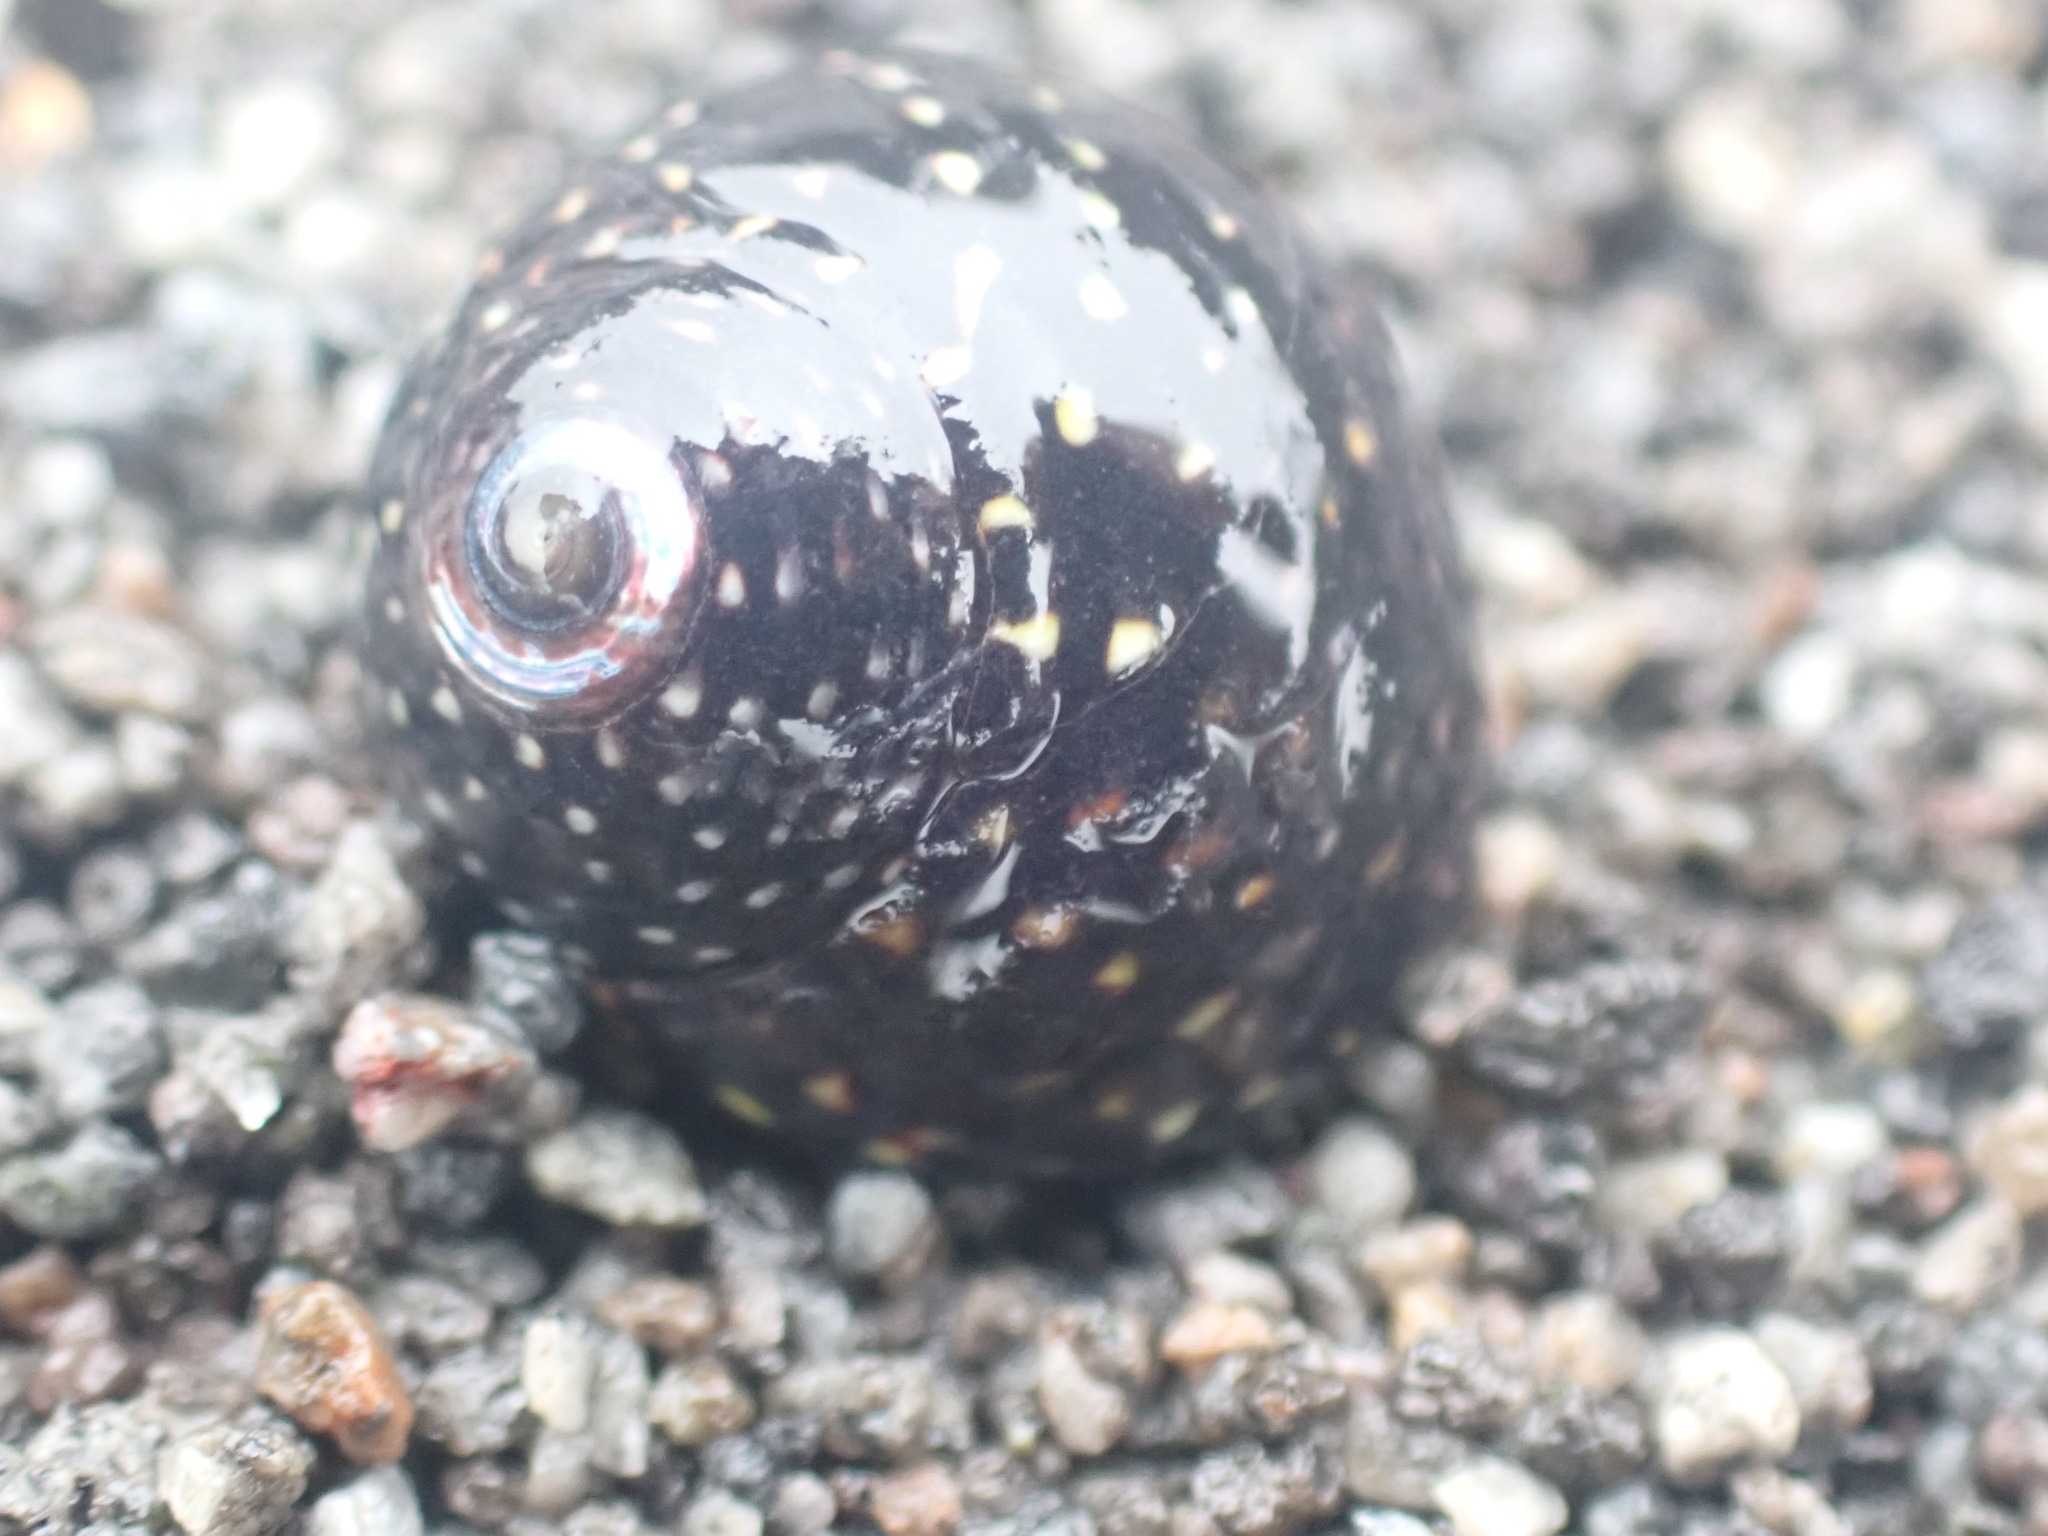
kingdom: Animalia
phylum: Mollusca
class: Gastropoda
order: Trochida
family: Trochidae
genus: Diloma
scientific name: Diloma aridum
